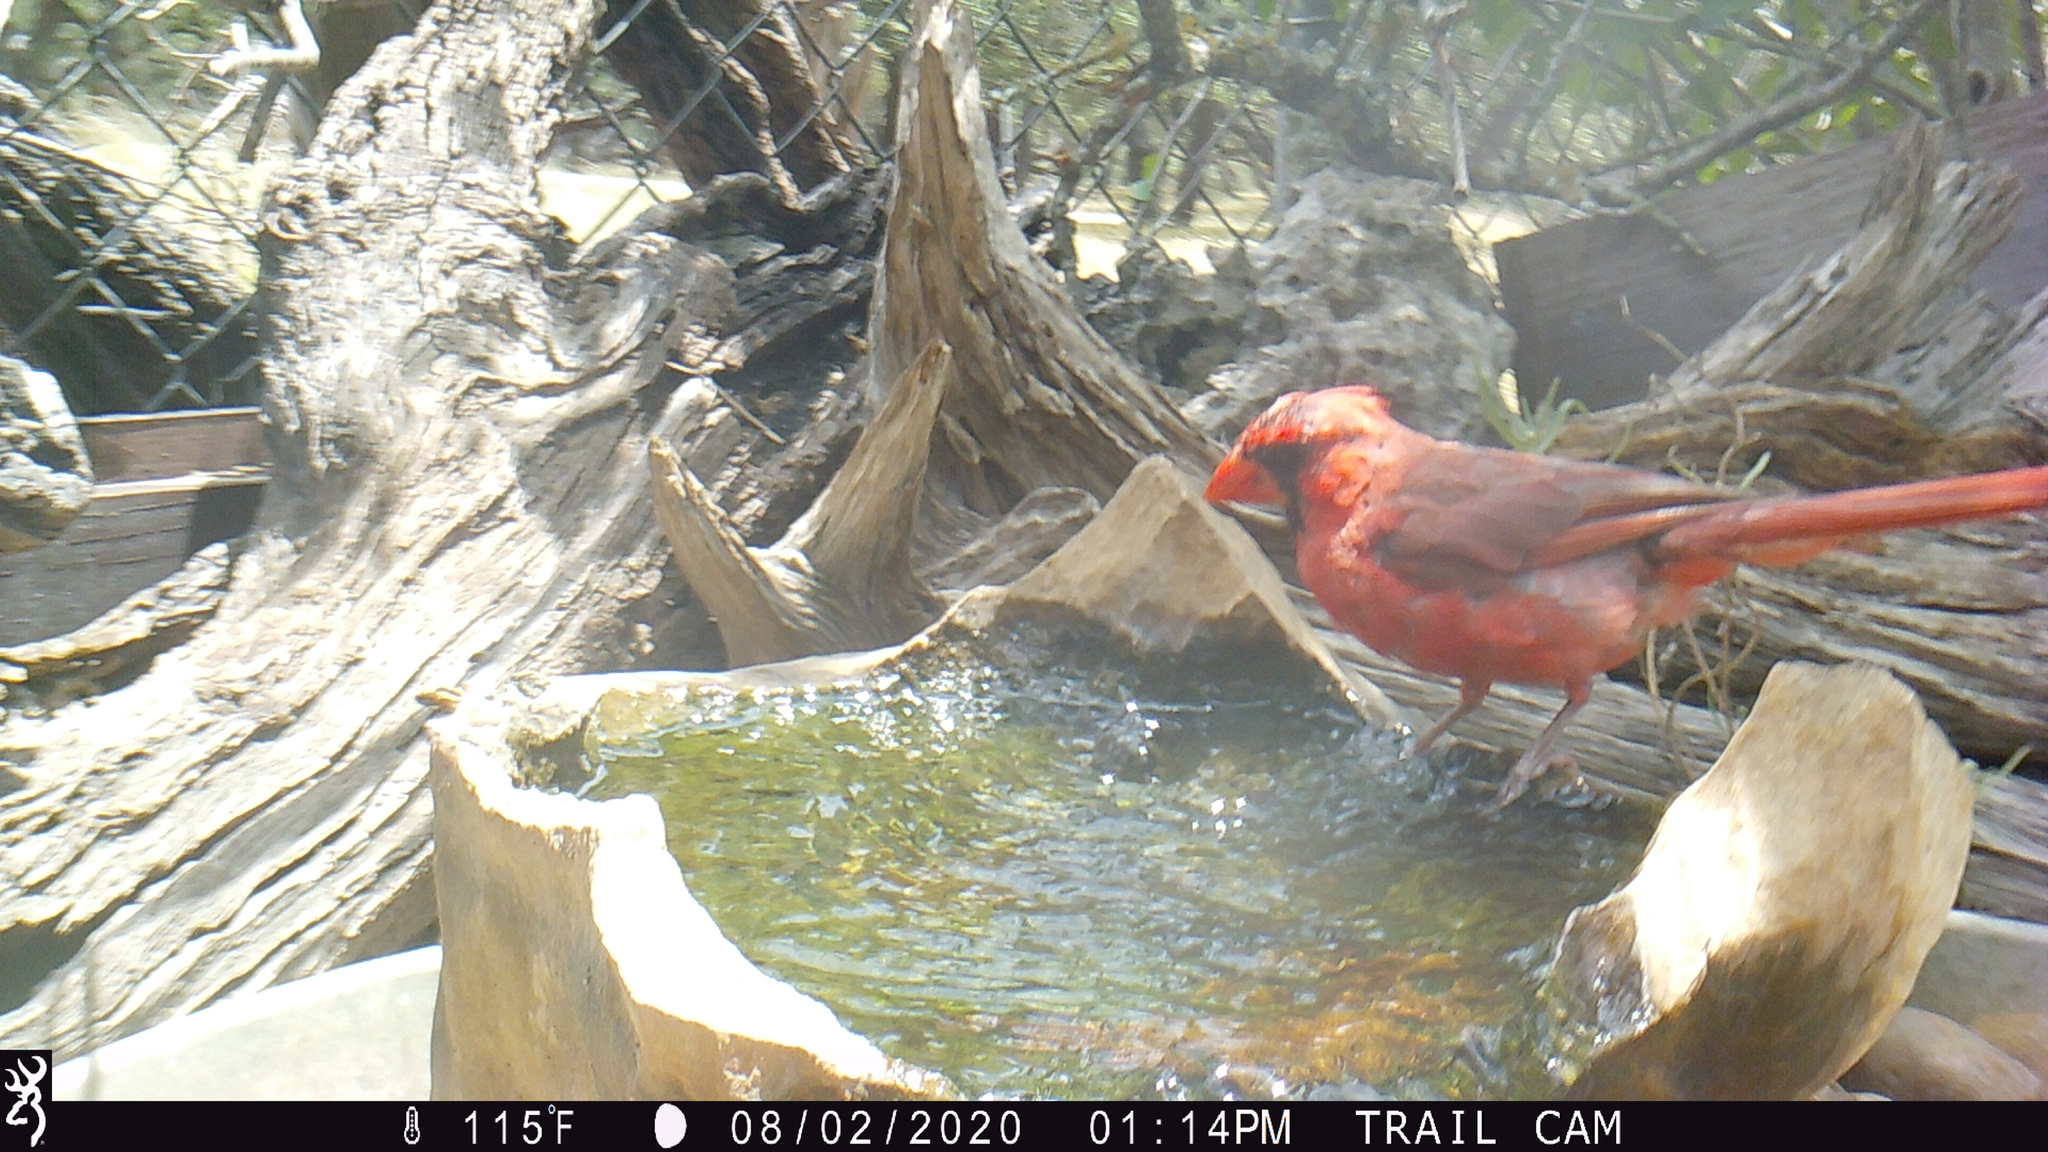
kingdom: Animalia
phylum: Chordata
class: Aves
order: Passeriformes
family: Cardinalidae
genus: Cardinalis
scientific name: Cardinalis cardinalis
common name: Northern cardinal
